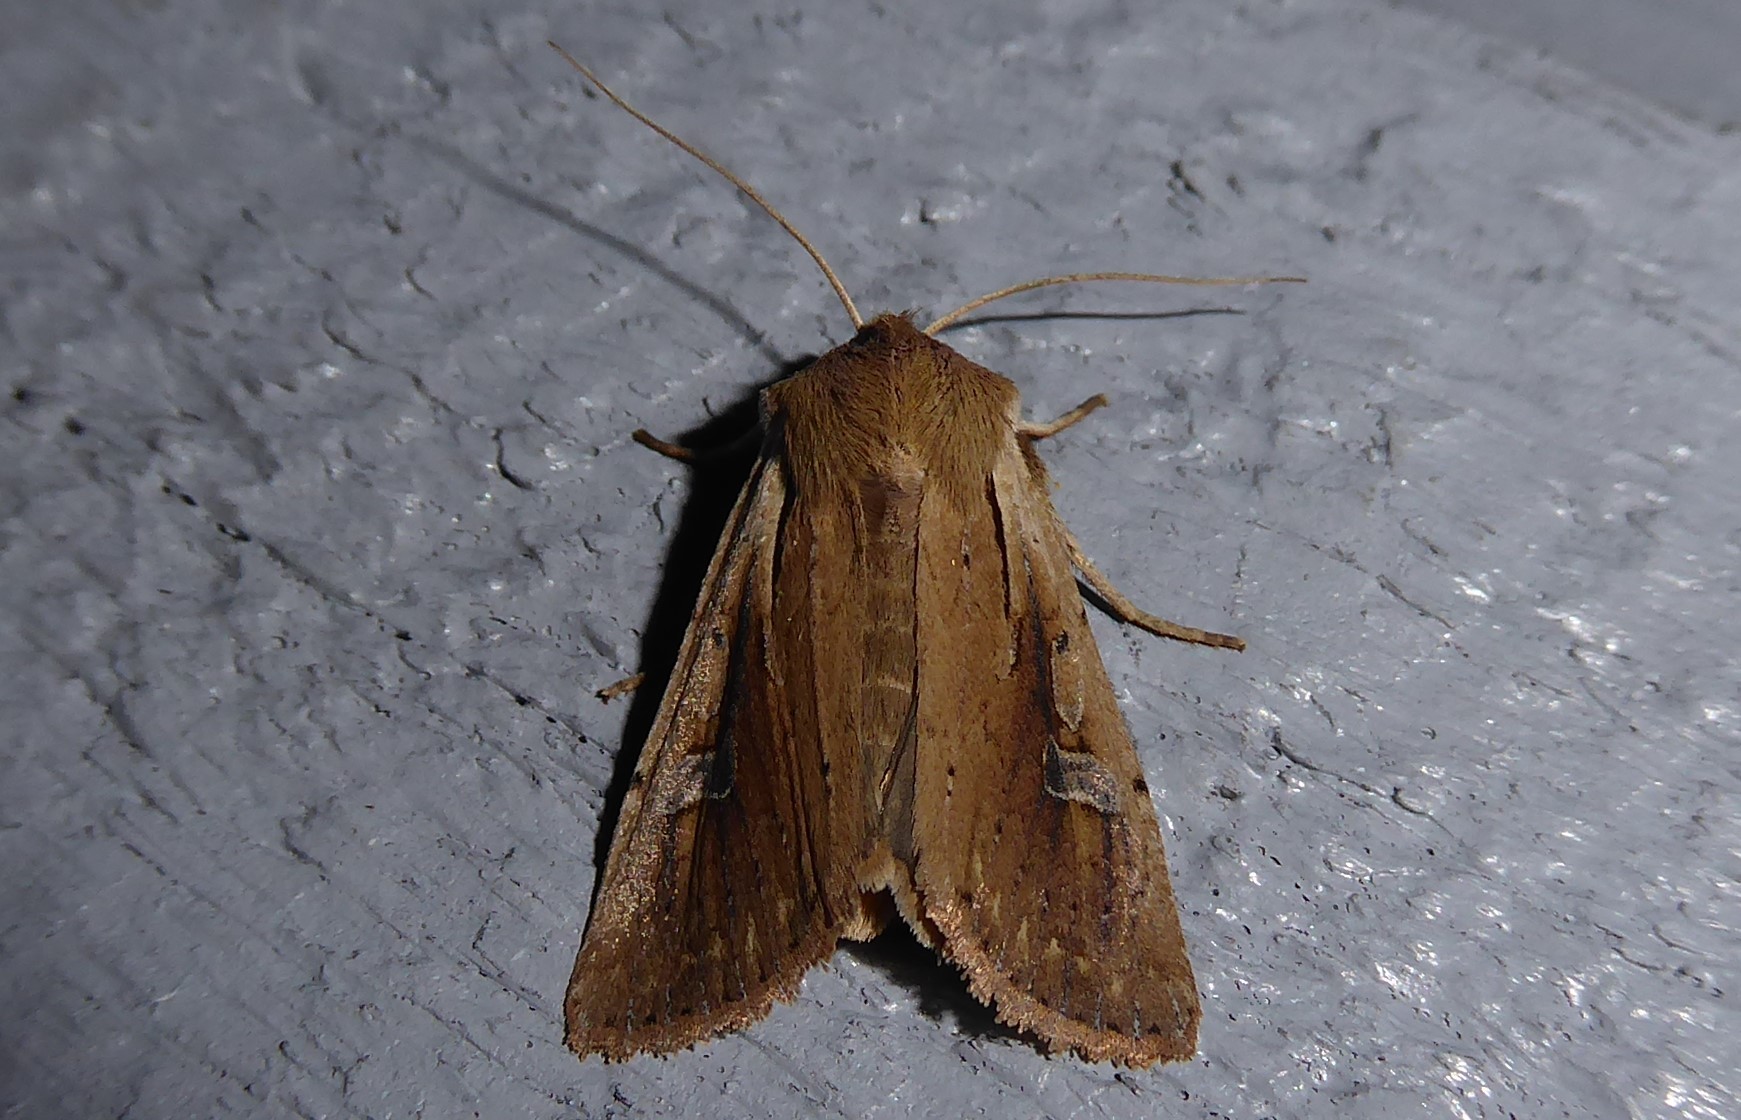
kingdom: Animalia
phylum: Arthropoda
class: Insecta
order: Lepidoptera
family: Noctuidae
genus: Ichneutica
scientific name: Ichneutica atristriga
